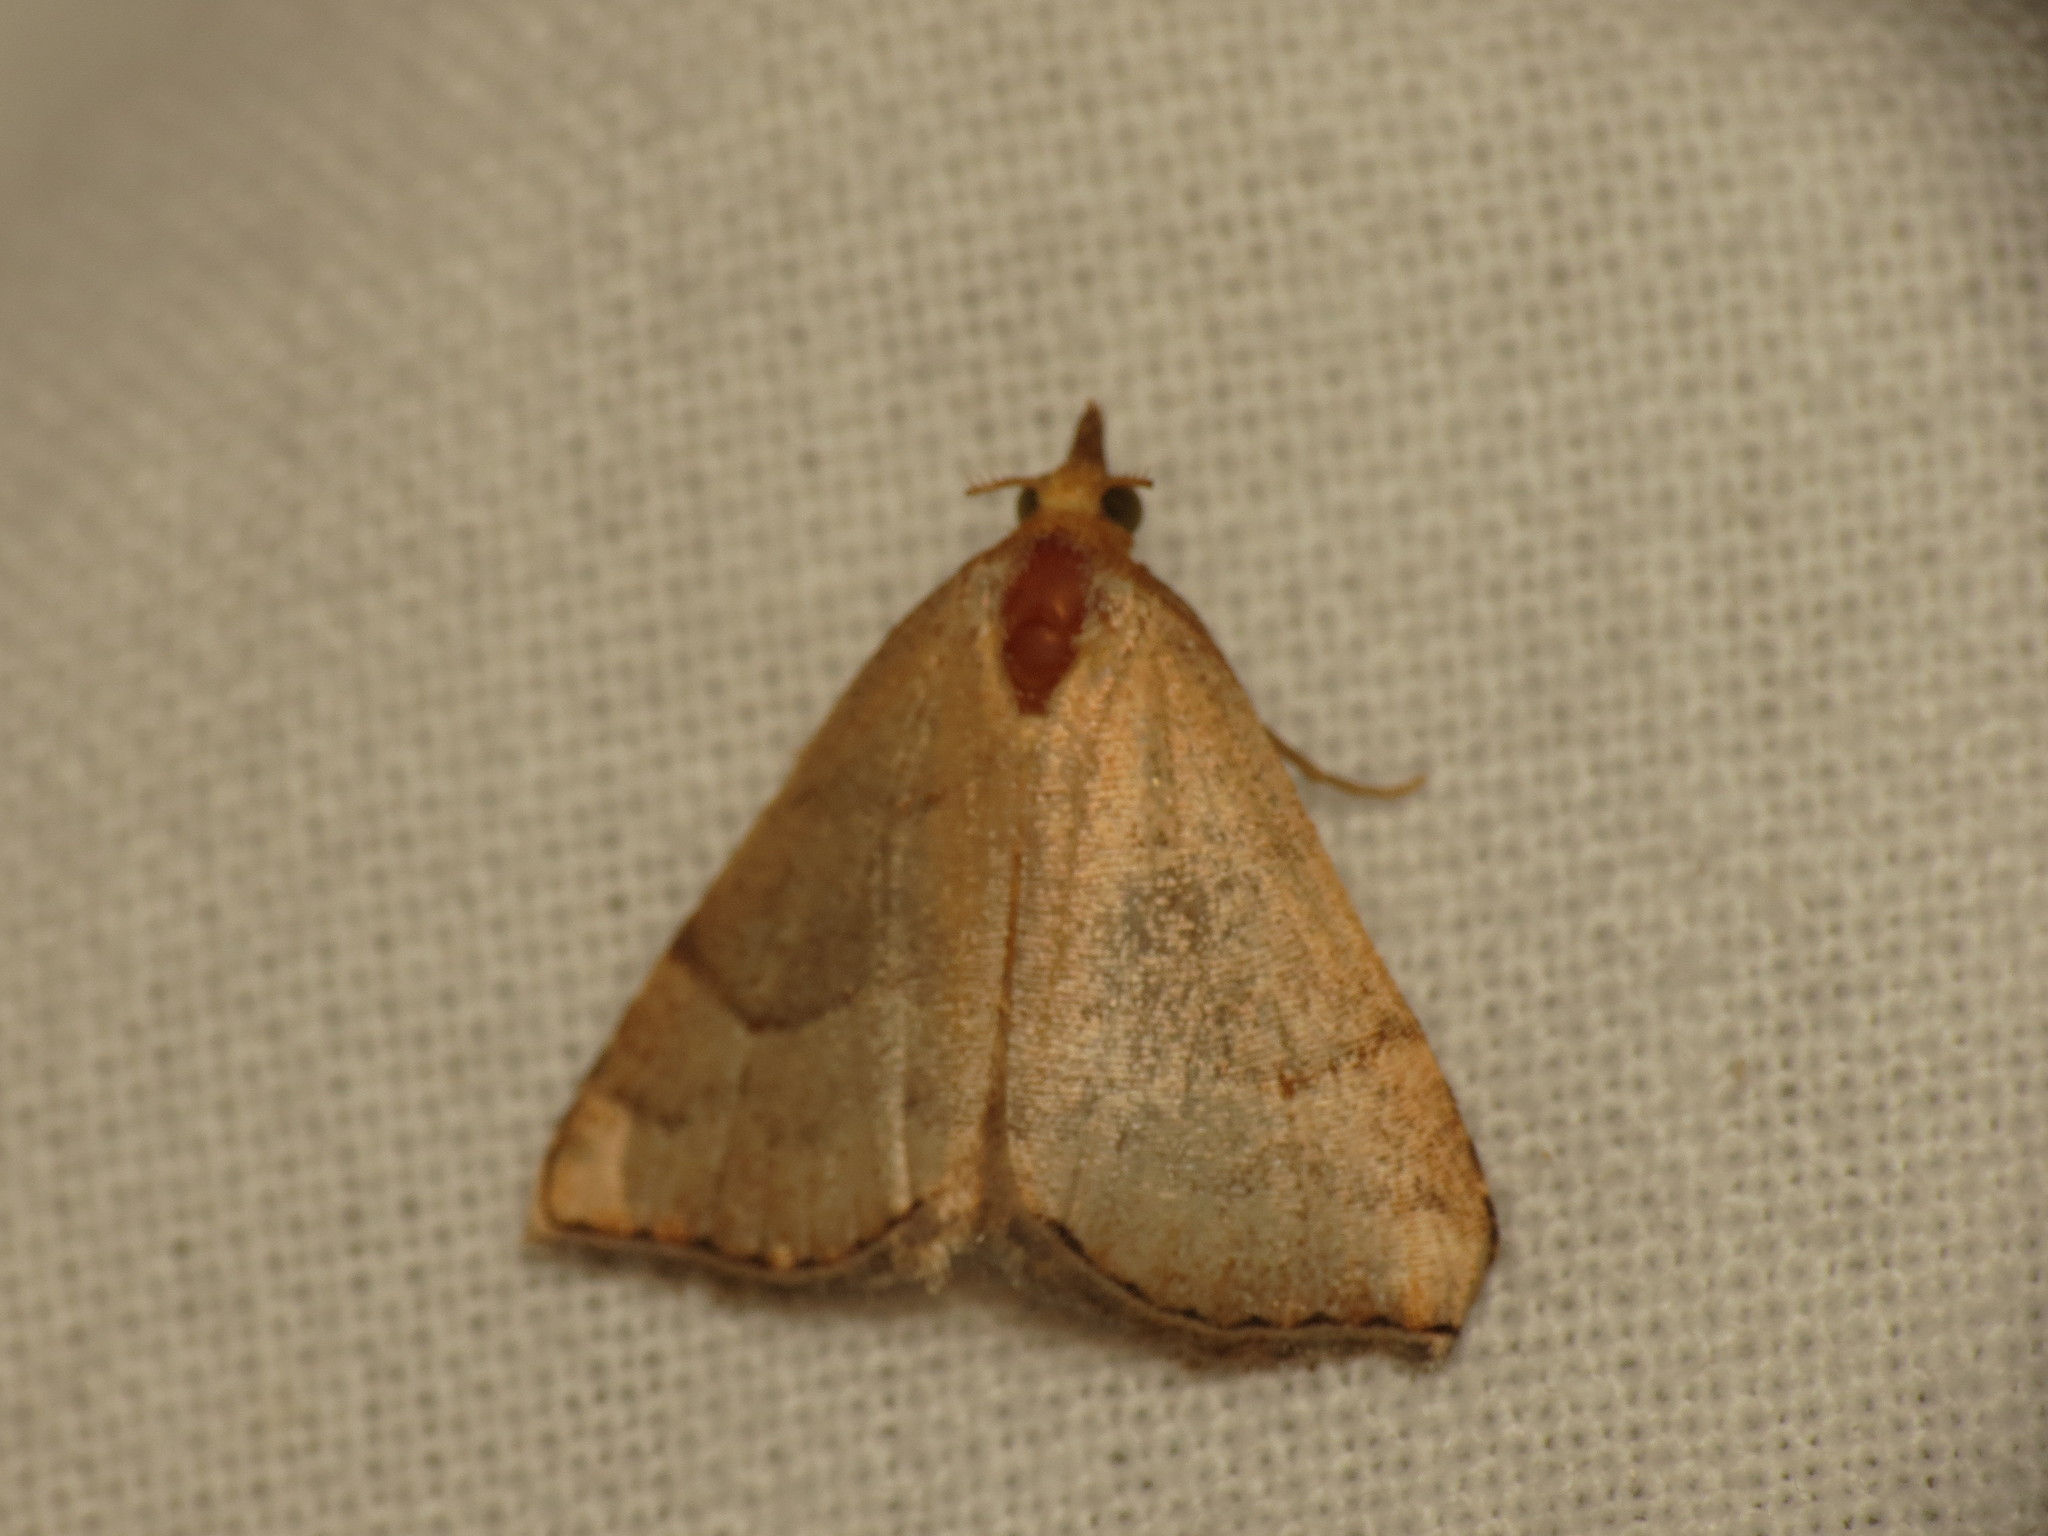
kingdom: Animalia
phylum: Arthropoda
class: Insecta
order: Lepidoptera
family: Erebidae
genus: Meranda
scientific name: Meranda susialis
